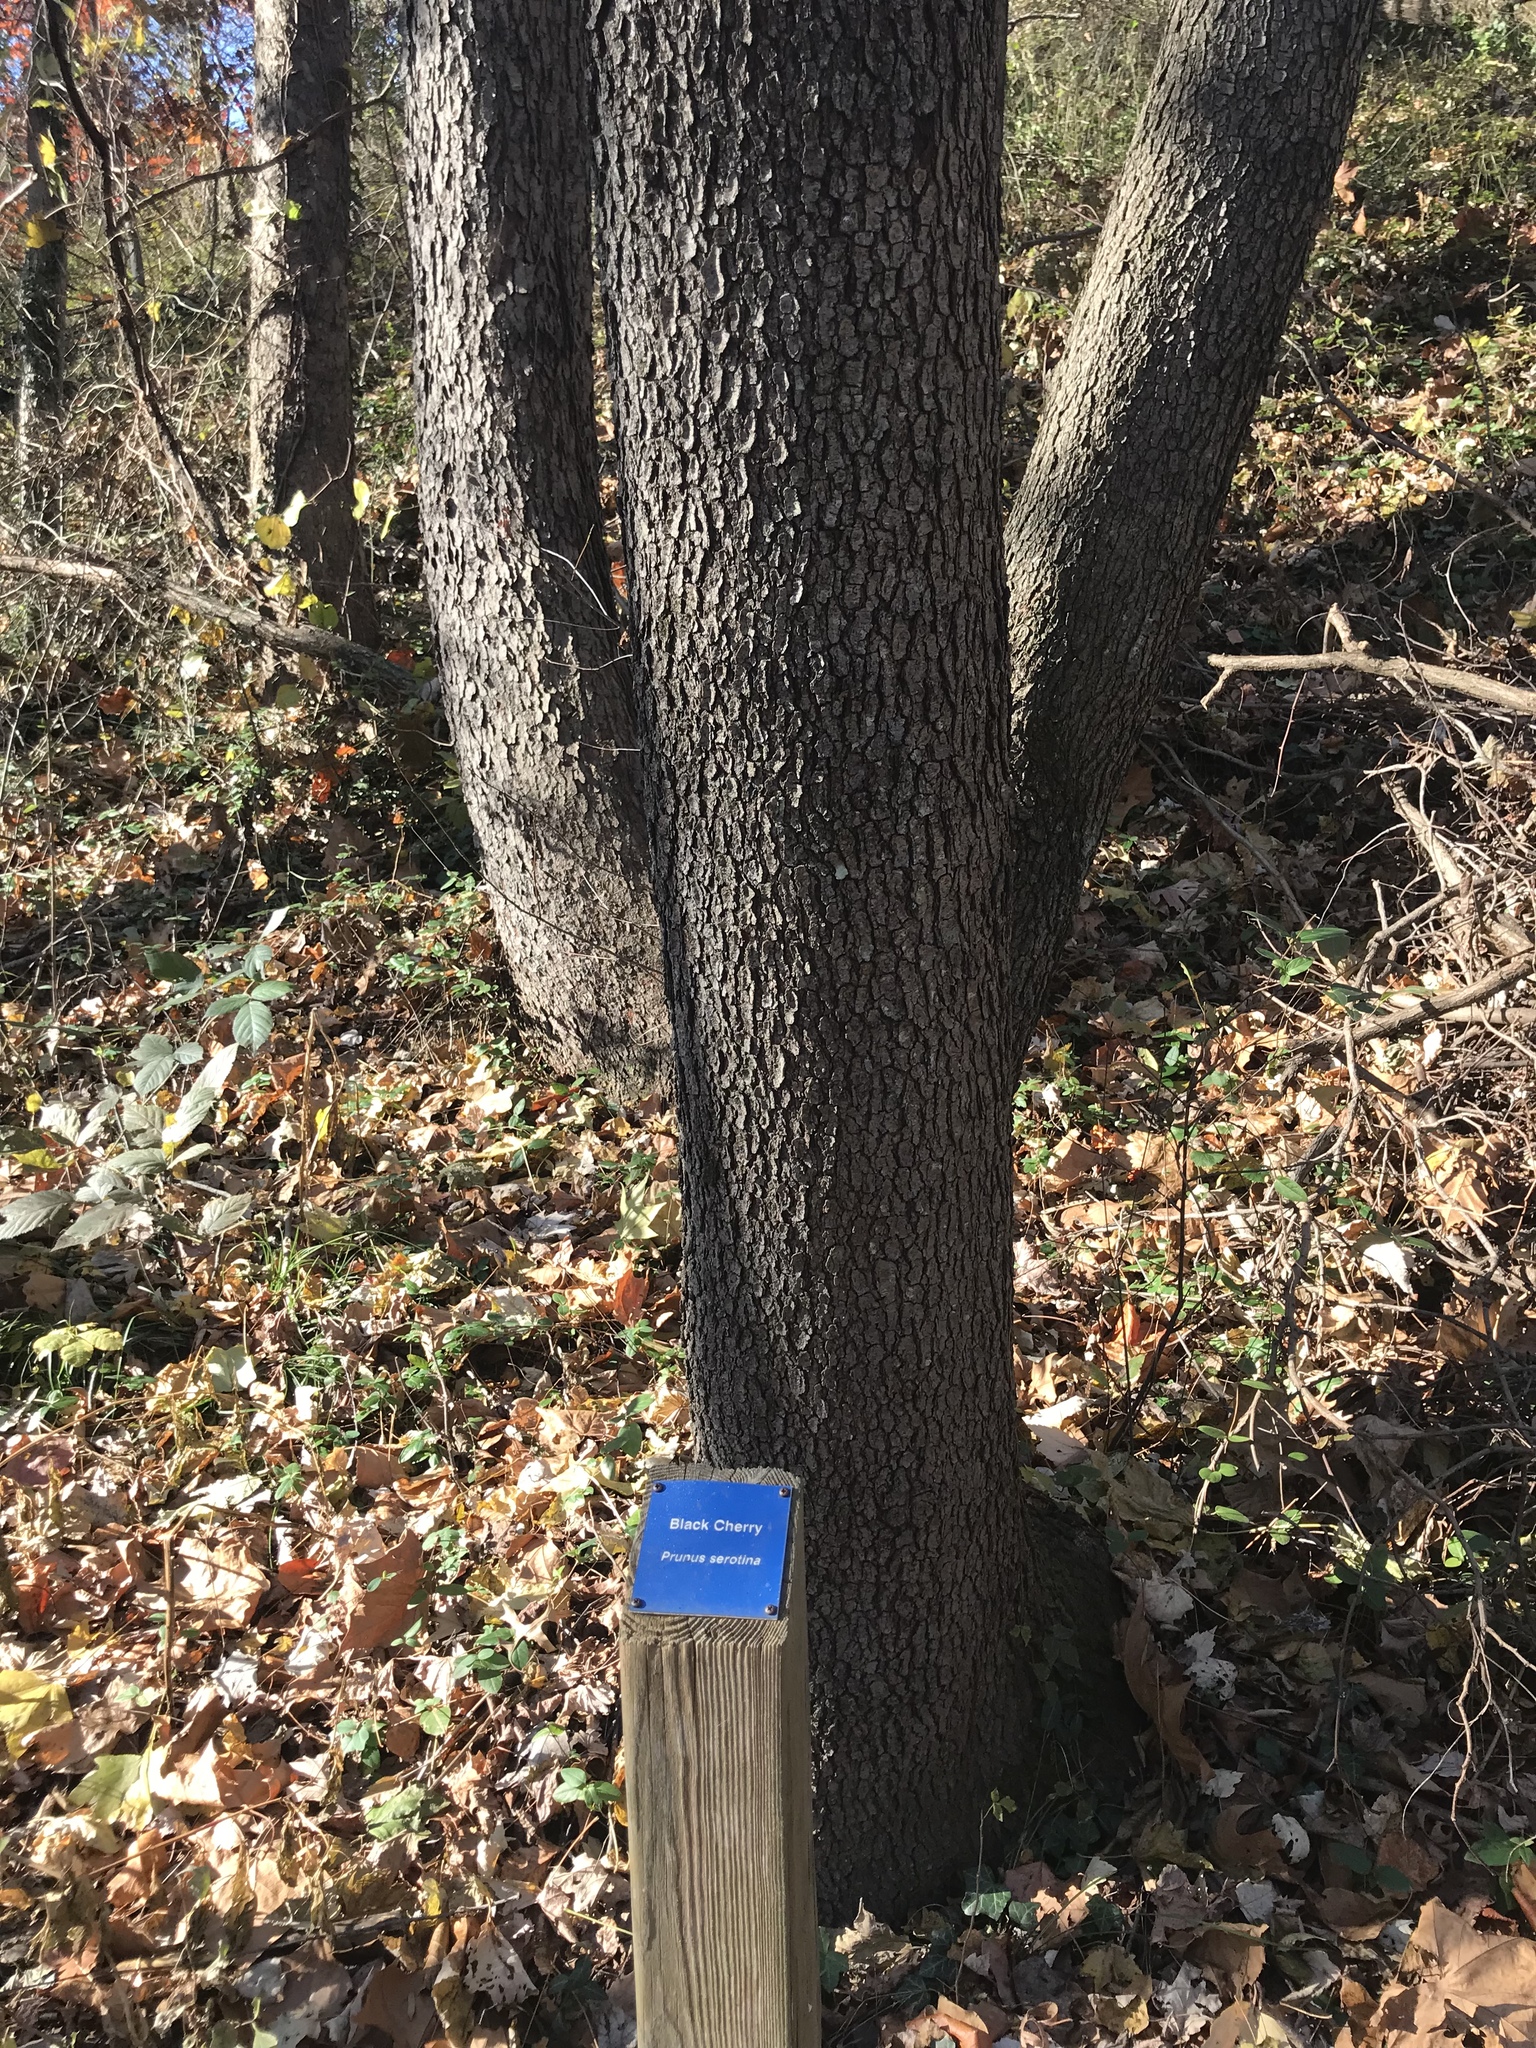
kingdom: Plantae
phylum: Tracheophyta
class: Magnoliopsida
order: Rosales
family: Rosaceae
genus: Prunus
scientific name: Prunus serotina
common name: Black cherry
